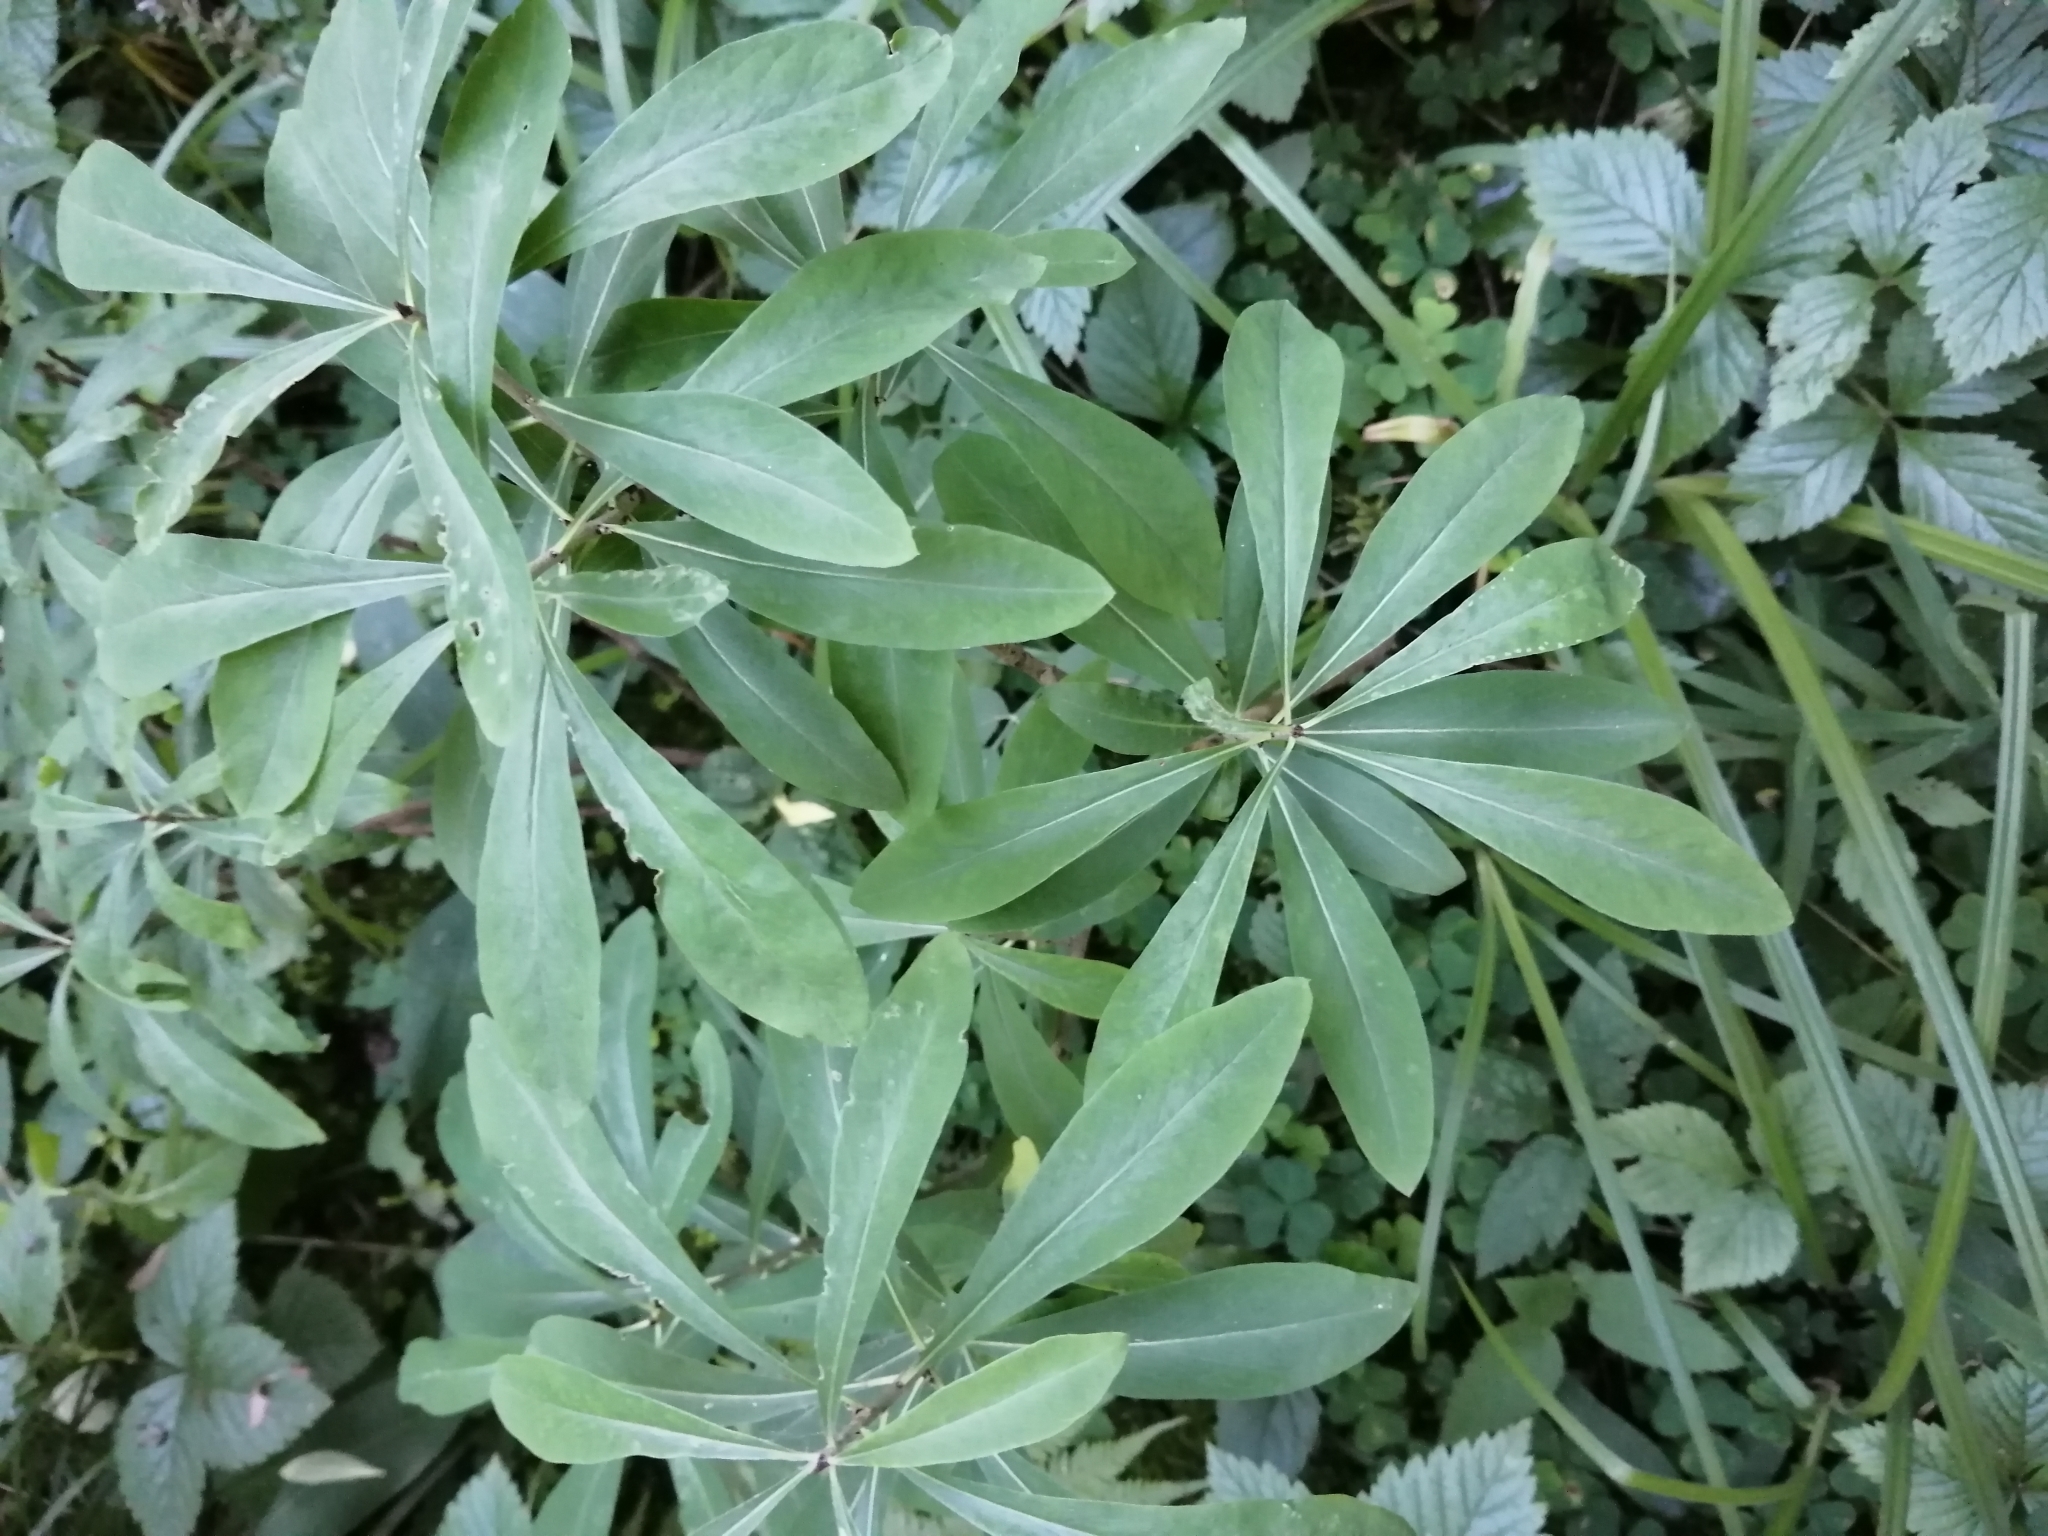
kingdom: Plantae
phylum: Tracheophyta
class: Magnoliopsida
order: Malvales
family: Thymelaeaceae
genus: Daphne
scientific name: Daphne mezereum
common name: Mezereon
